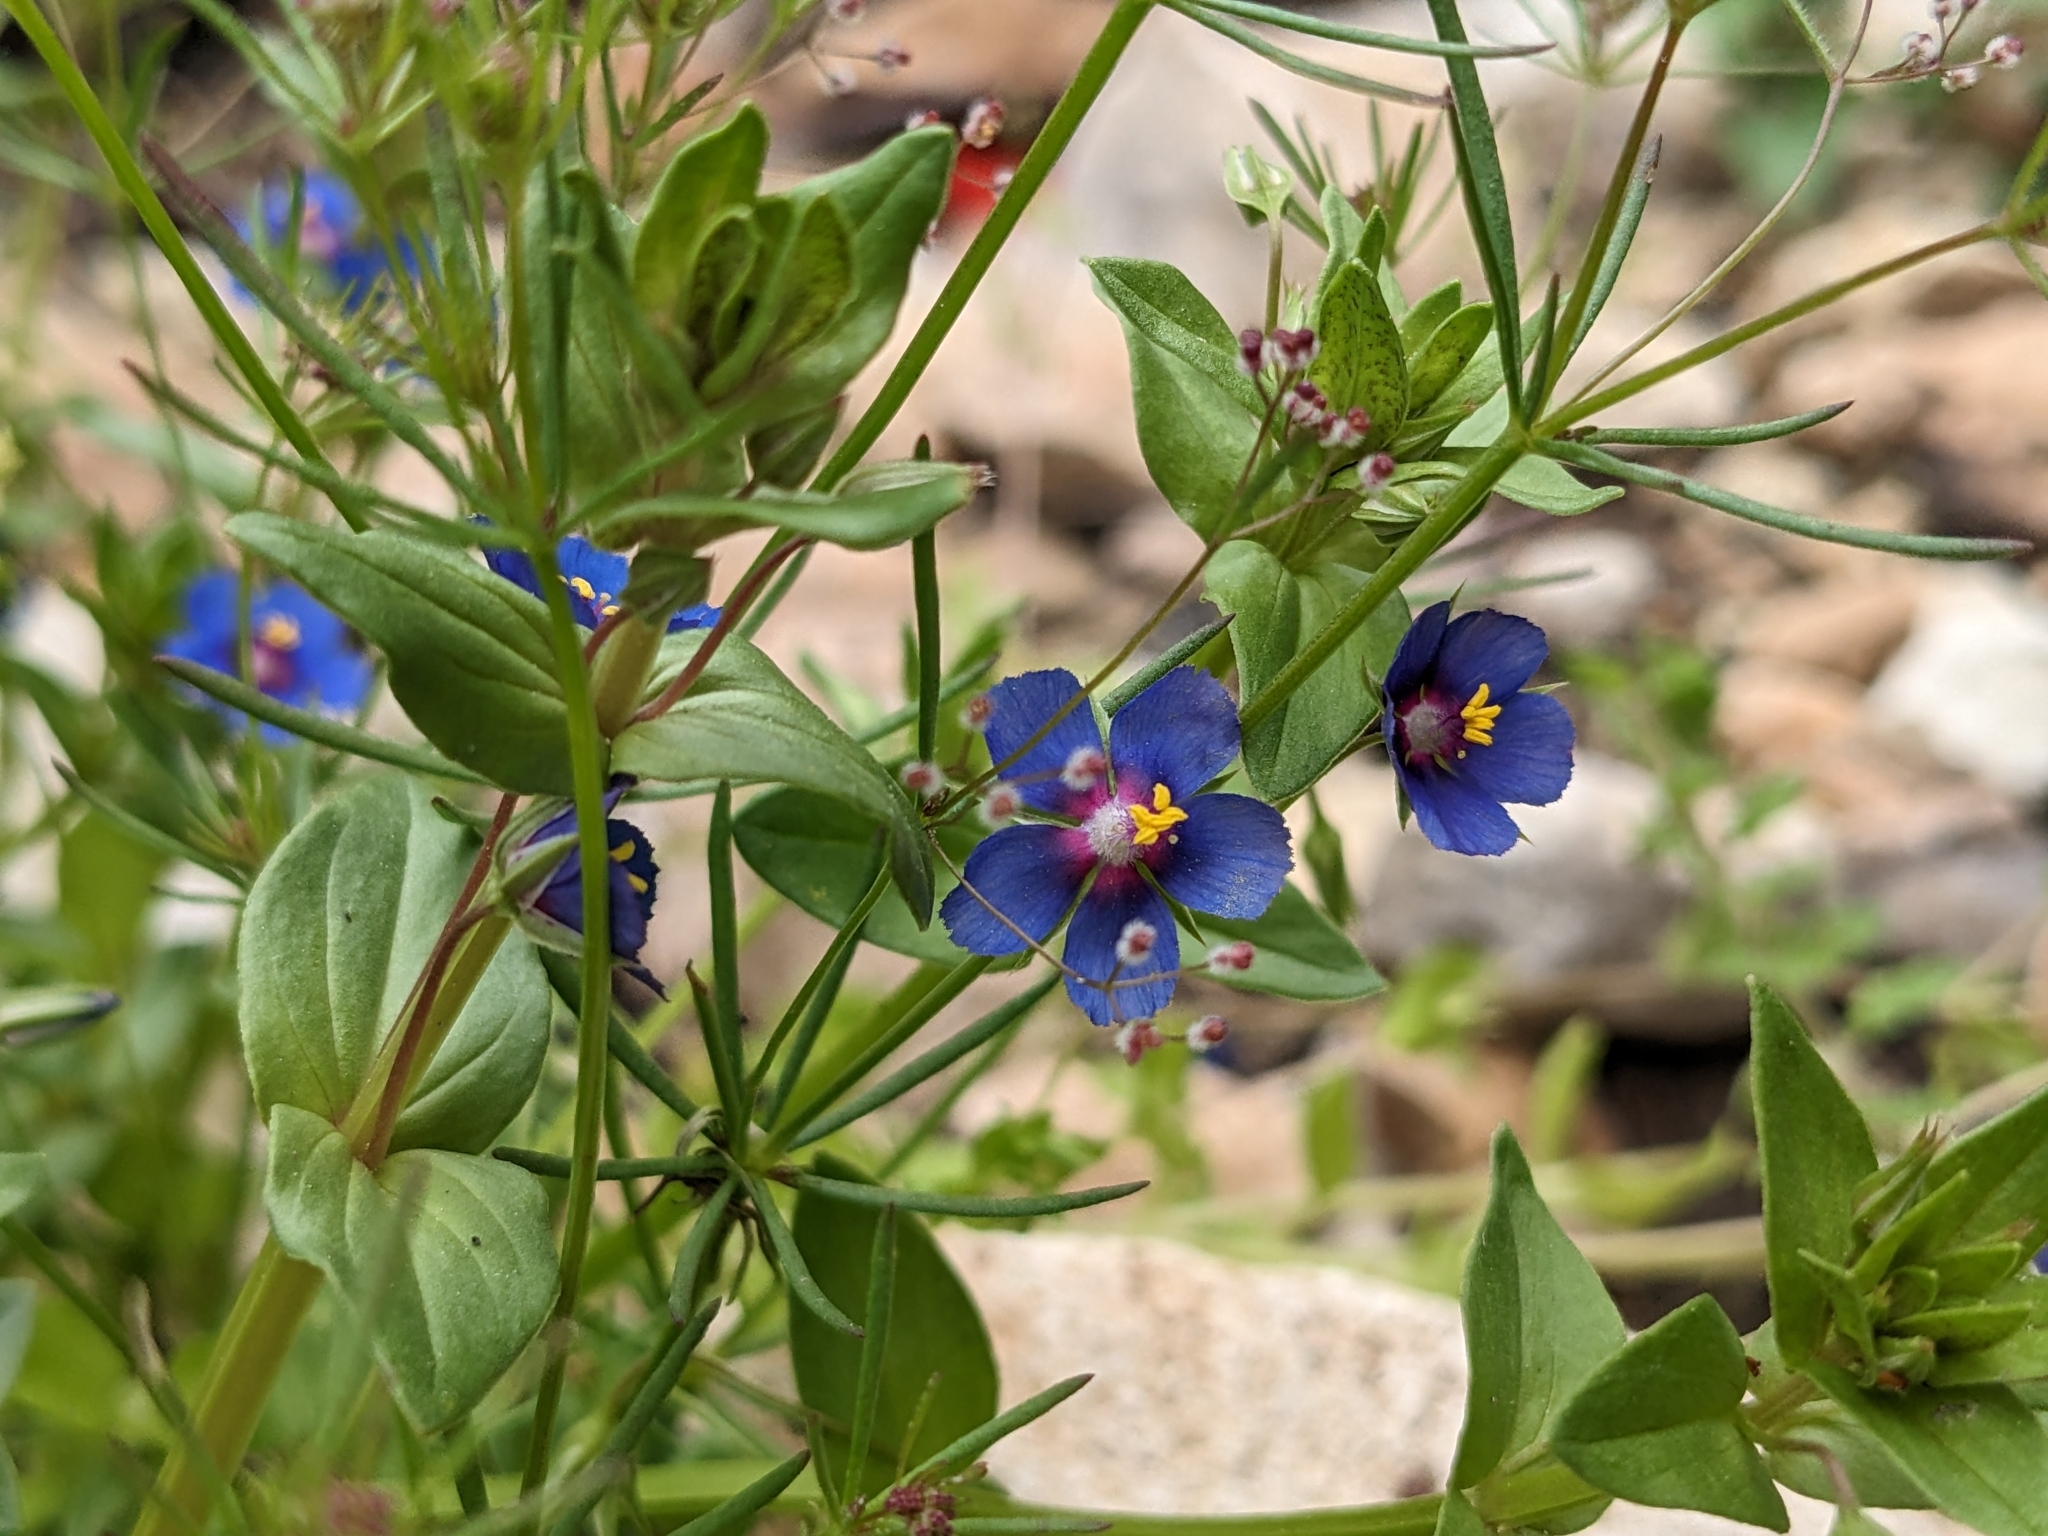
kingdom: Plantae
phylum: Tracheophyta
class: Magnoliopsida
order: Ericales
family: Primulaceae
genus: Lysimachia
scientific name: Lysimachia loeflingii
